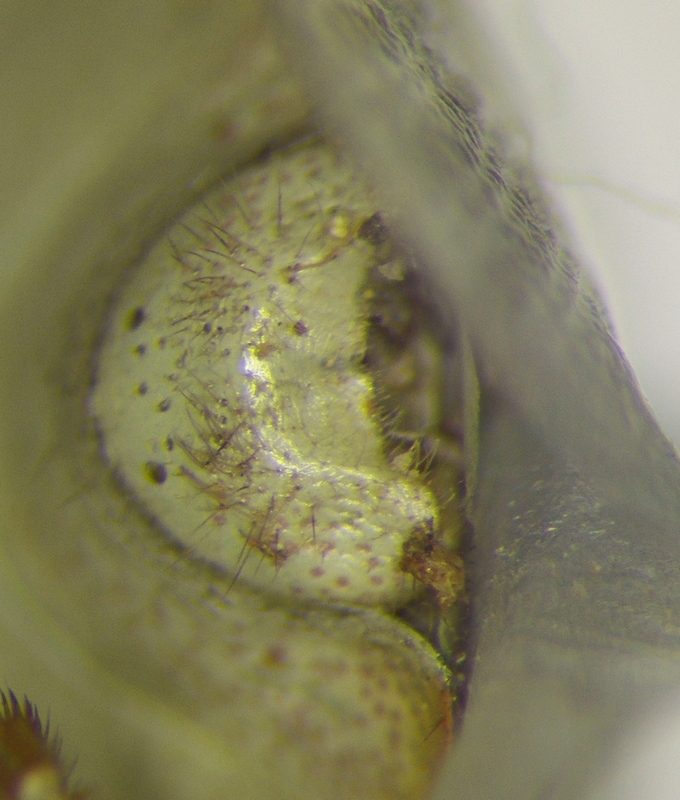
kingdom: Animalia
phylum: Arthropoda
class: Insecta
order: Hemiptera
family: Pentatomidae
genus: Thyanta
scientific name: Thyanta custator
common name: Stink bug
